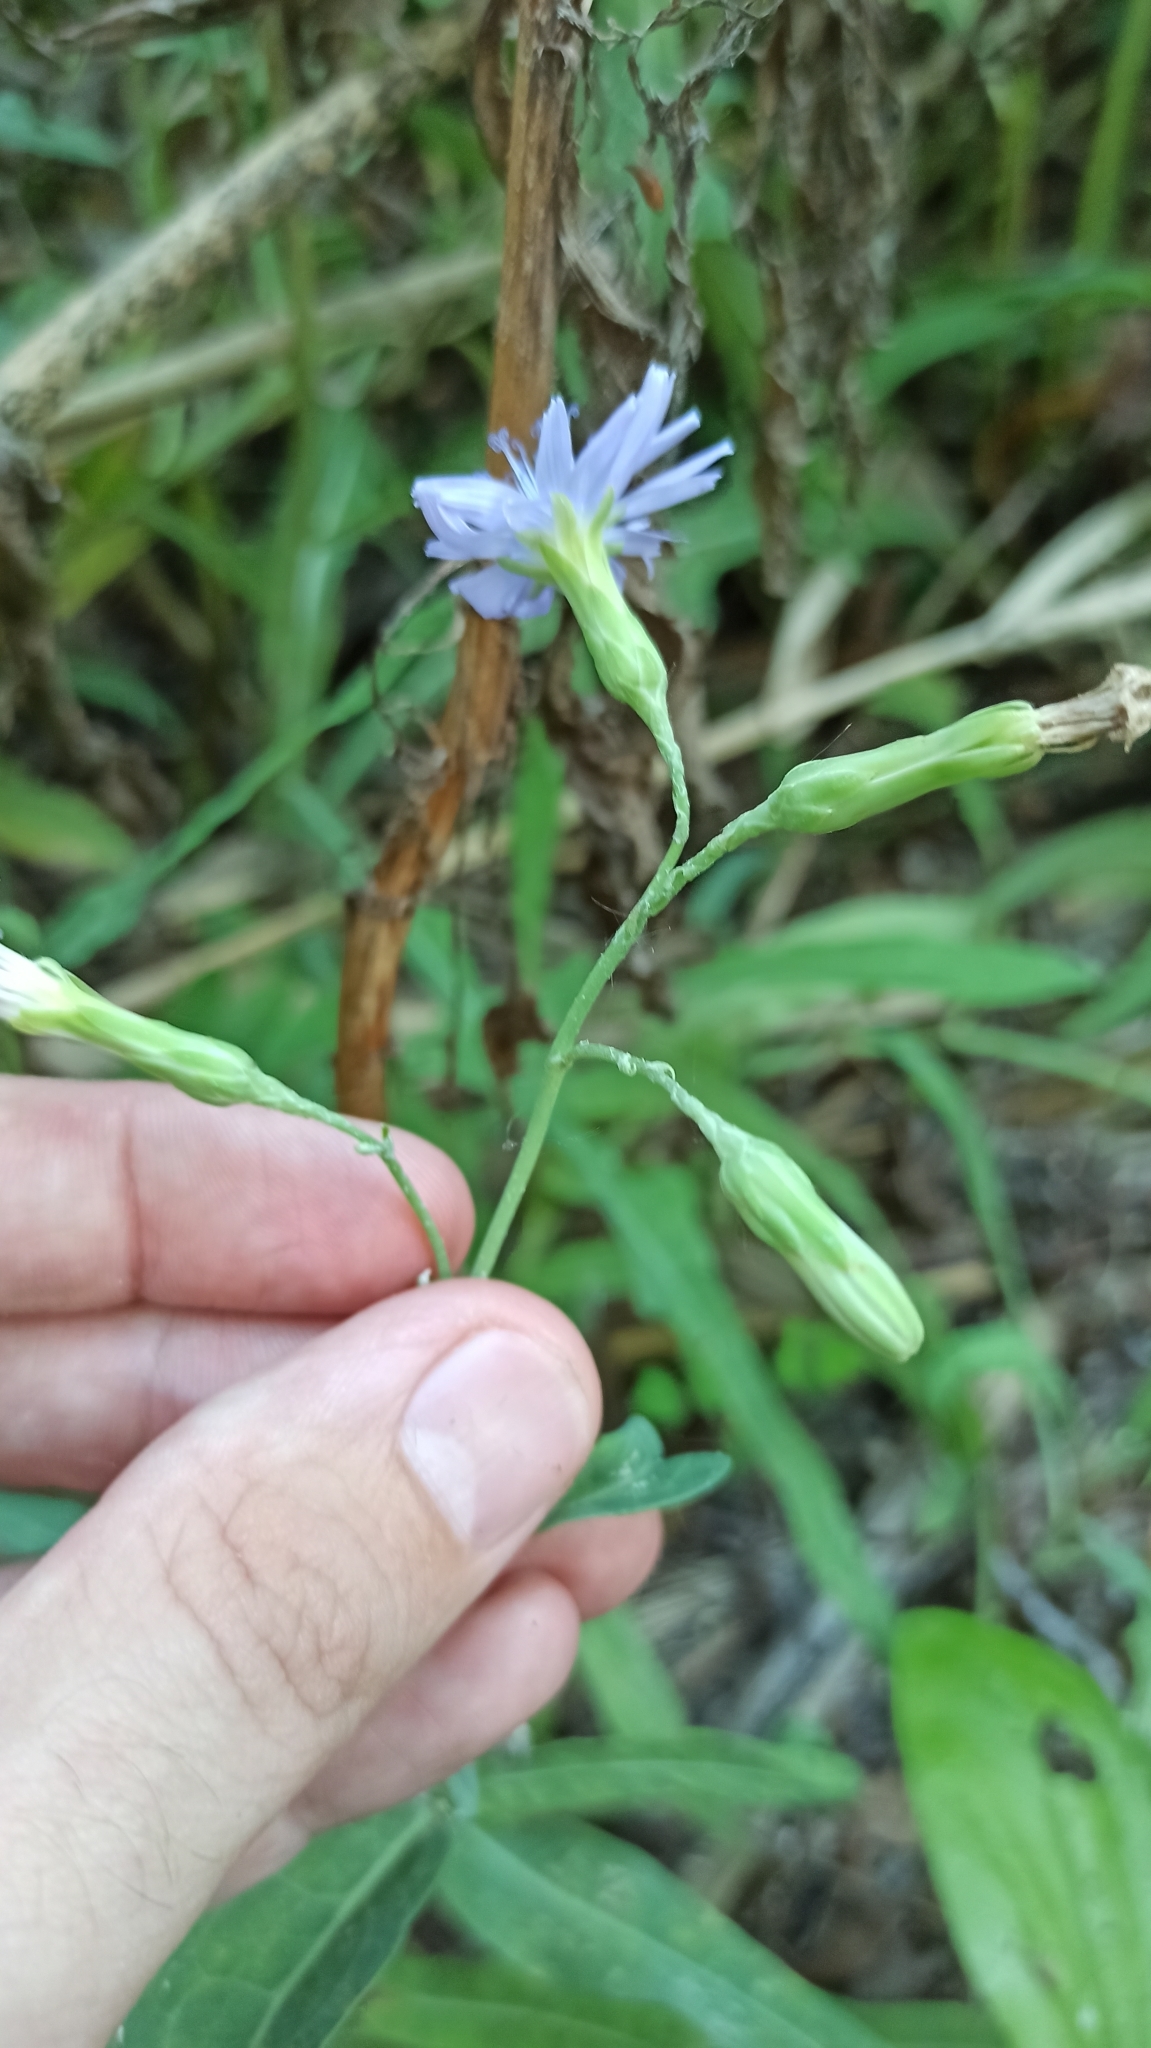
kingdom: Plantae
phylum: Tracheophyta
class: Magnoliopsida
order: Asterales
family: Asteraceae
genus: Lactuca
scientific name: Lactuca tatarica
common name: Blue lettuce
